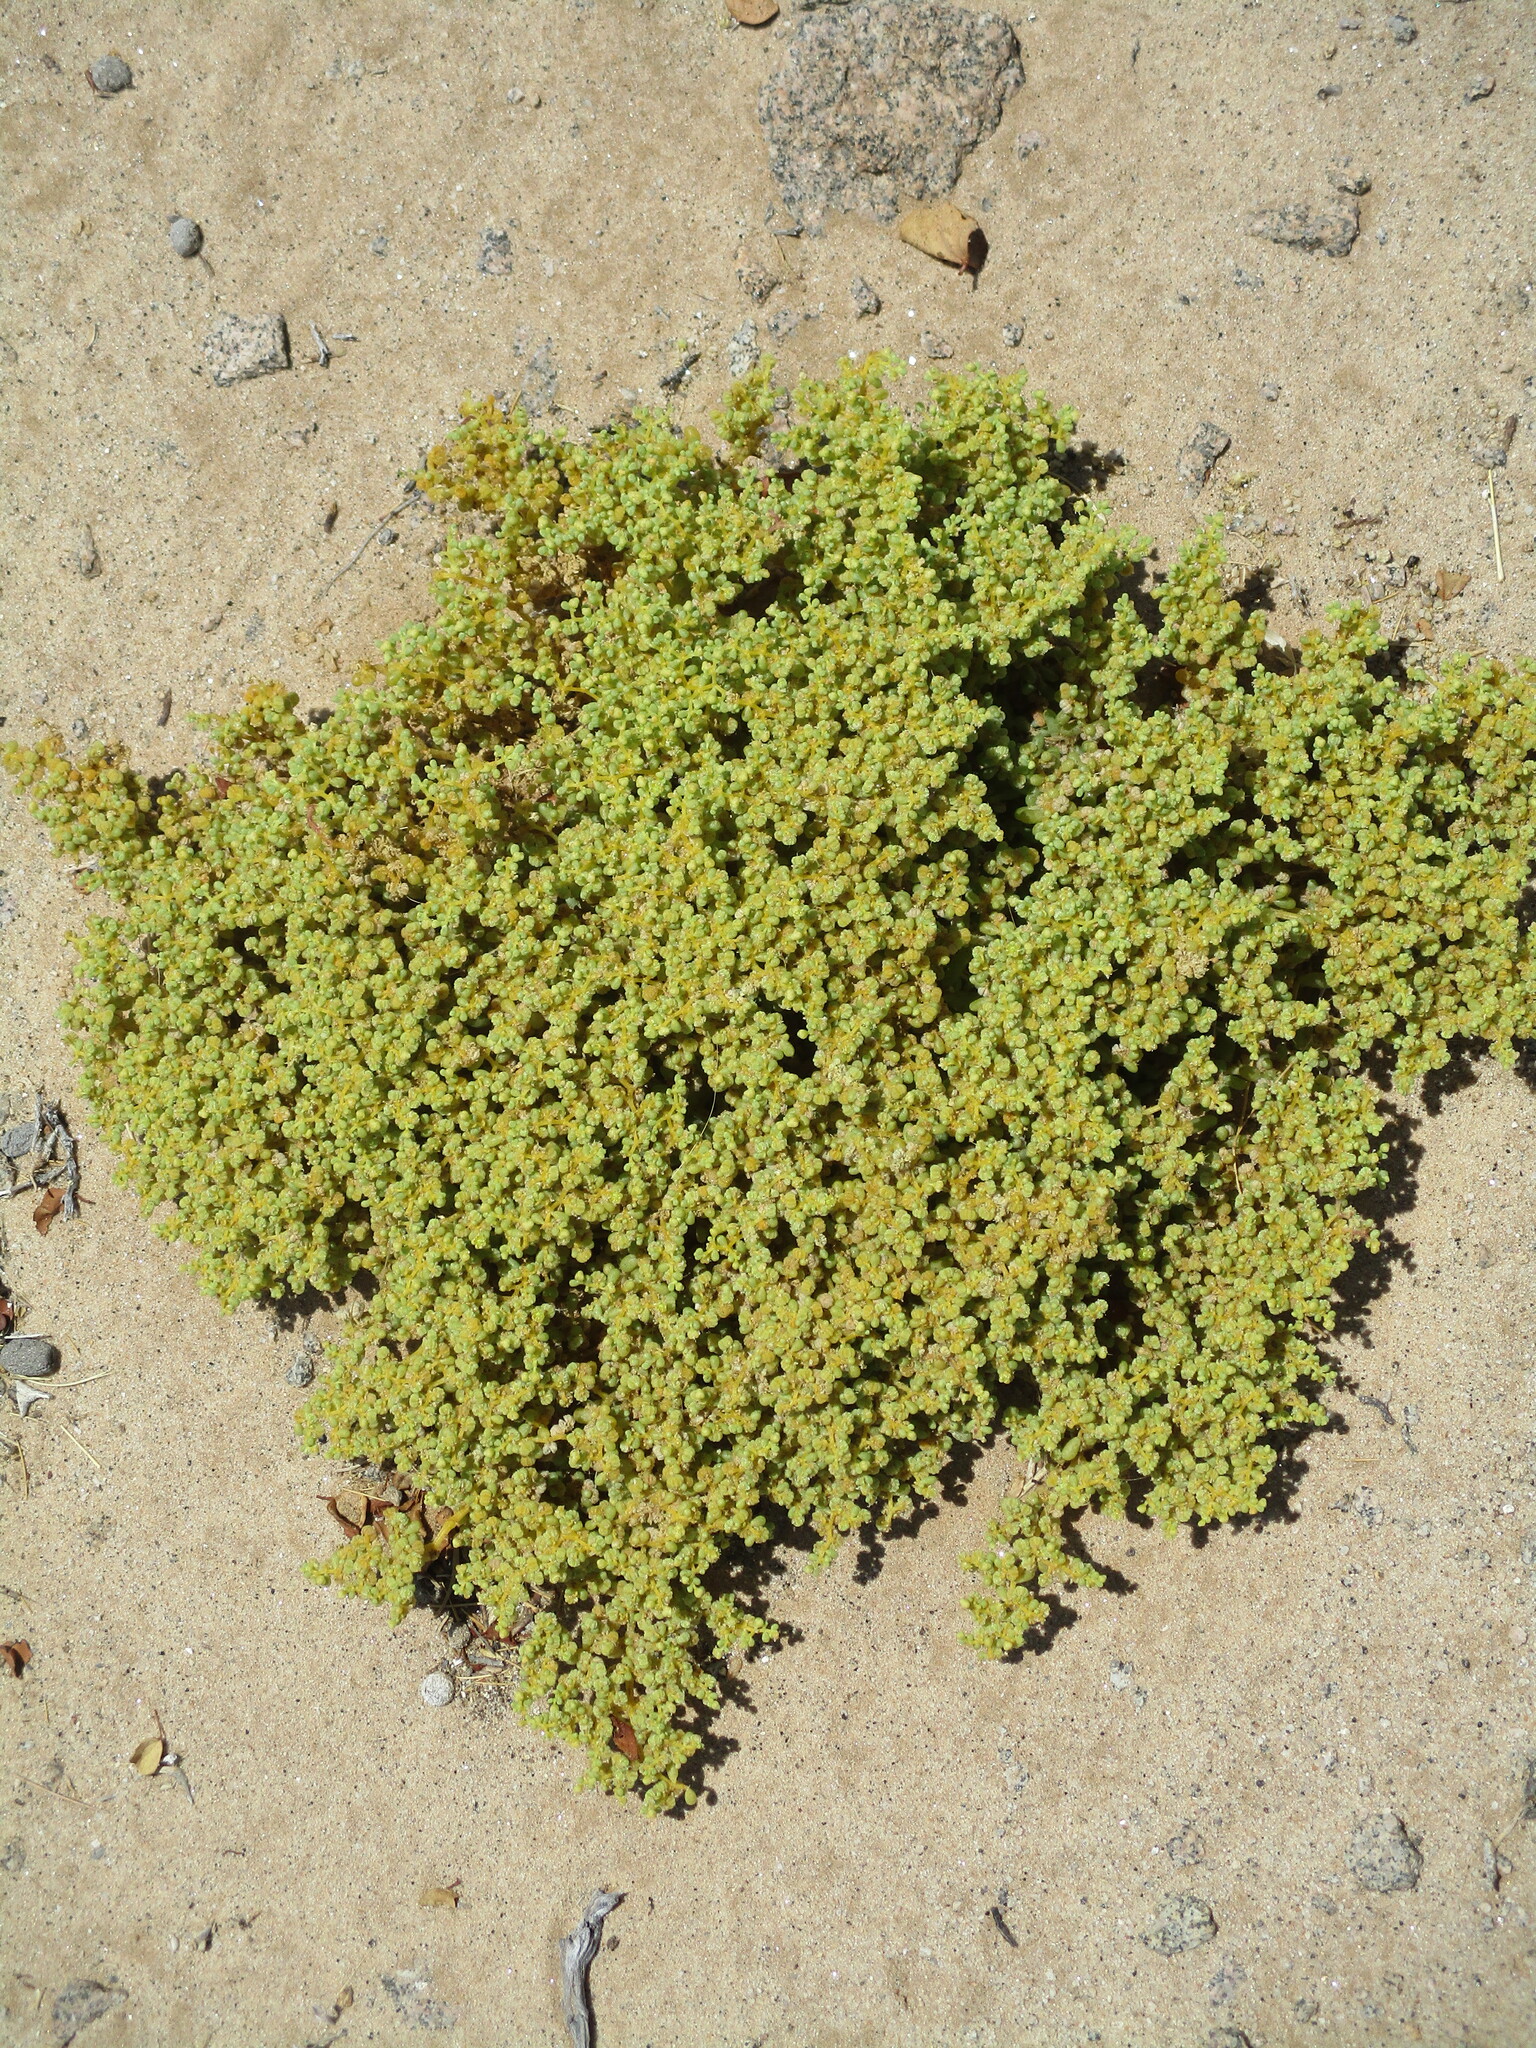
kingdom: Plantae
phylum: Tracheophyta
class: Magnoliopsida
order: Zygophyllales
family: Zygophyllaceae
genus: Tetraena
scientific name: Tetraena simplex
